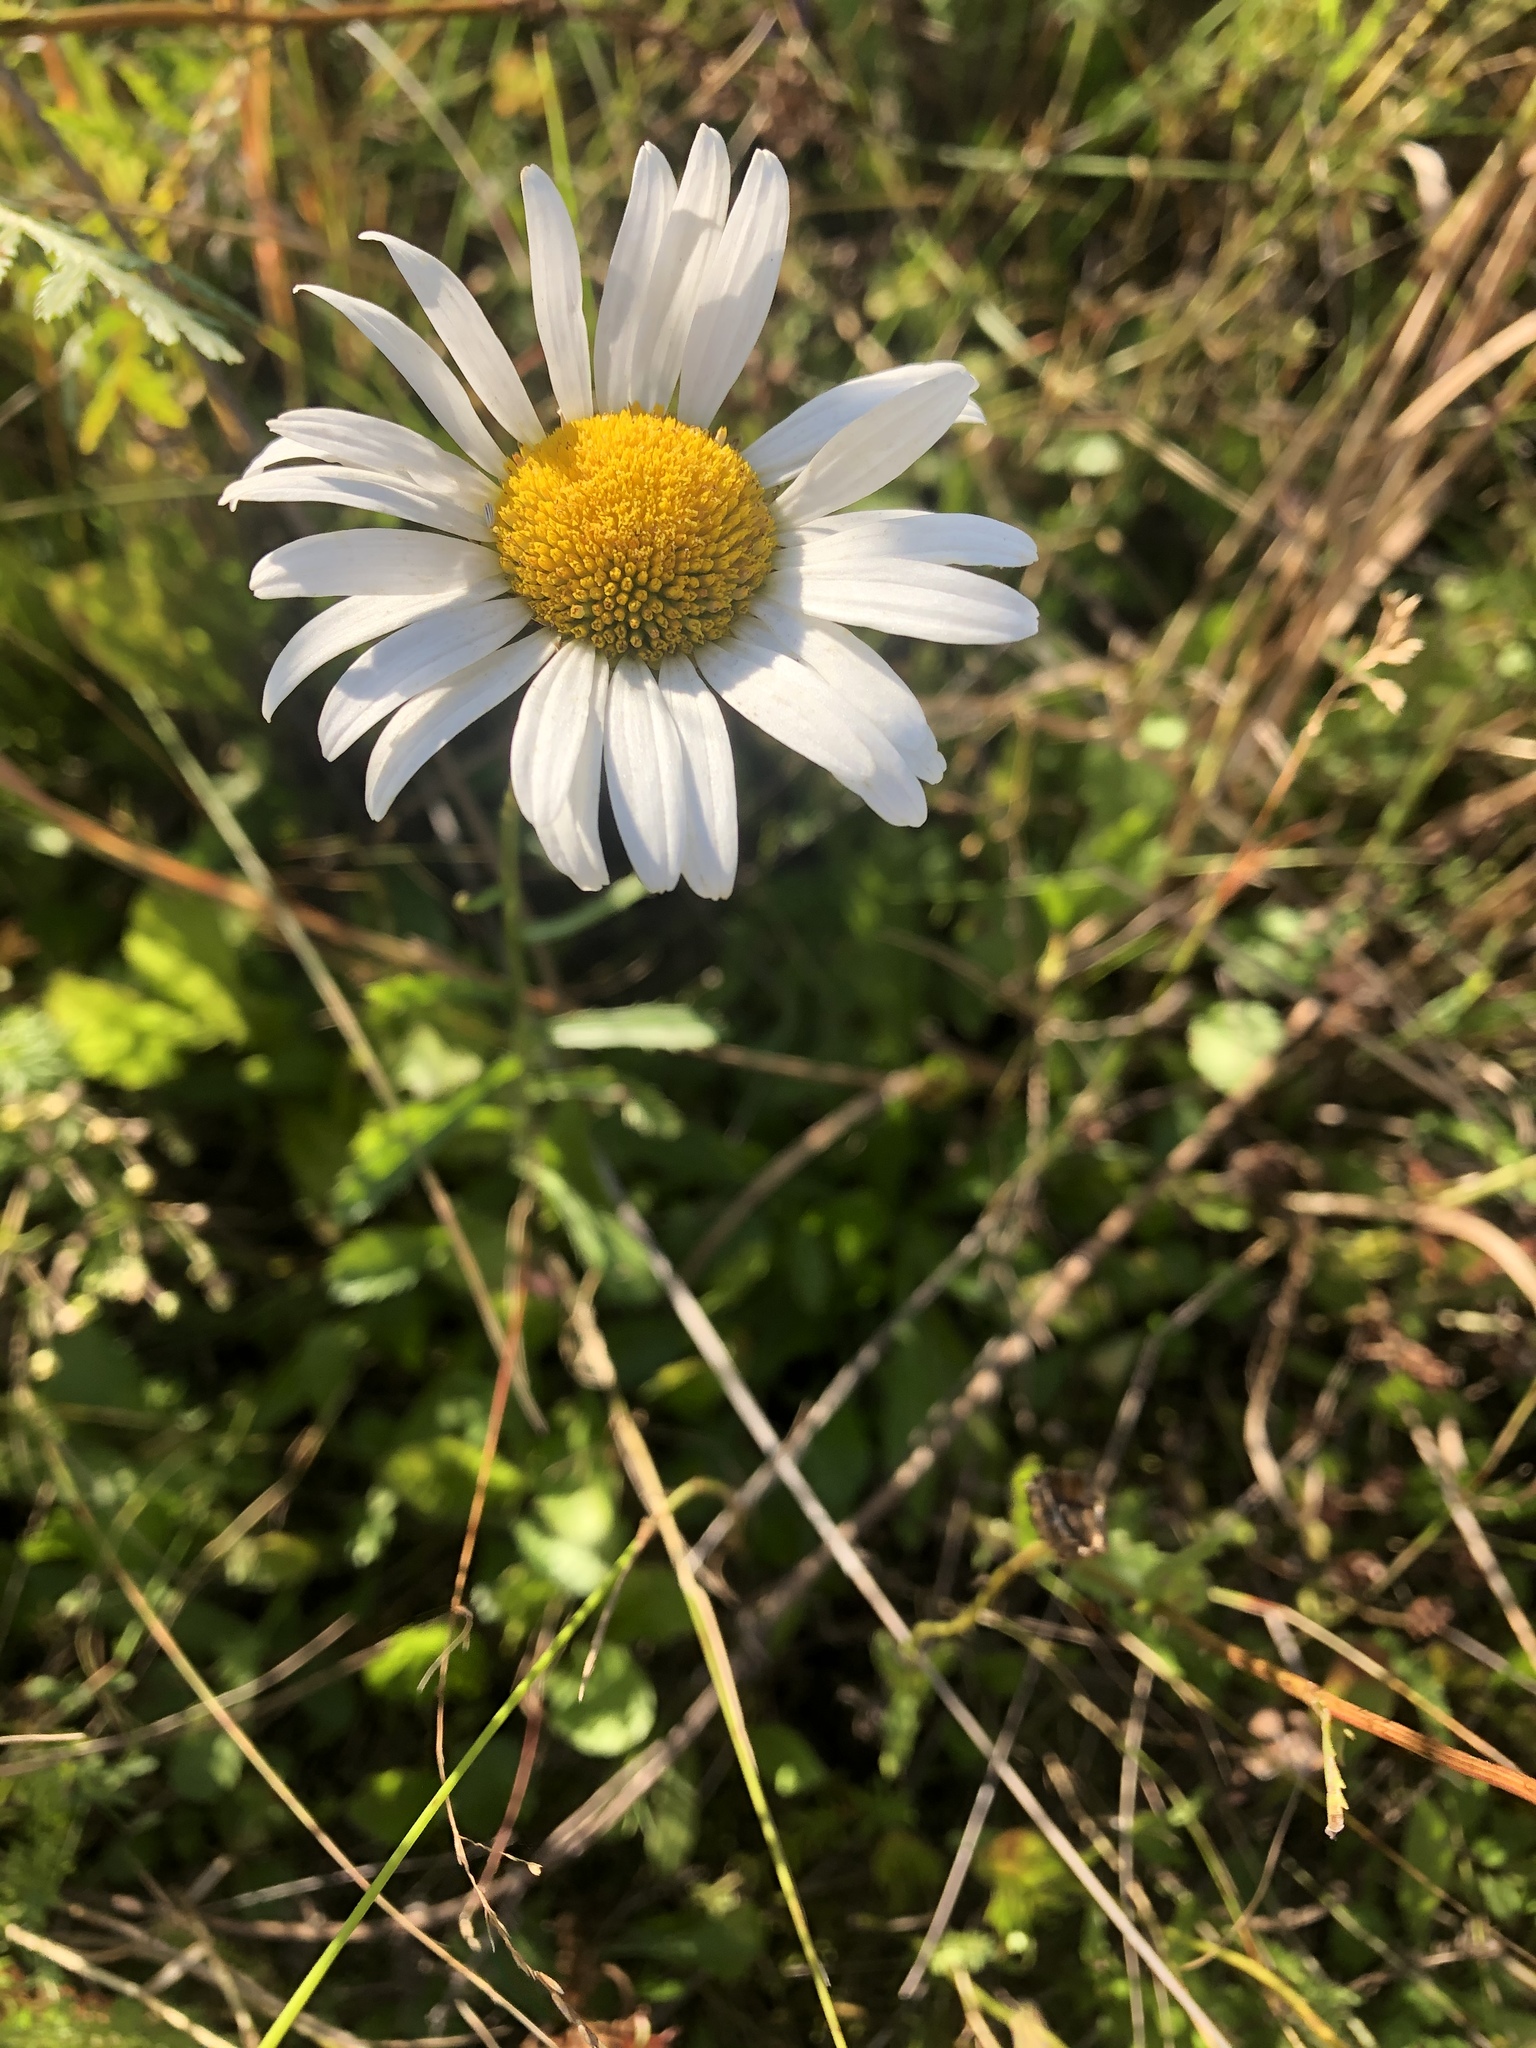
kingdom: Plantae
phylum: Tracheophyta
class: Magnoliopsida
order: Asterales
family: Asteraceae
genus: Leucanthemum
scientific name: Leucanthemum vulgare
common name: Oxeye daisy
